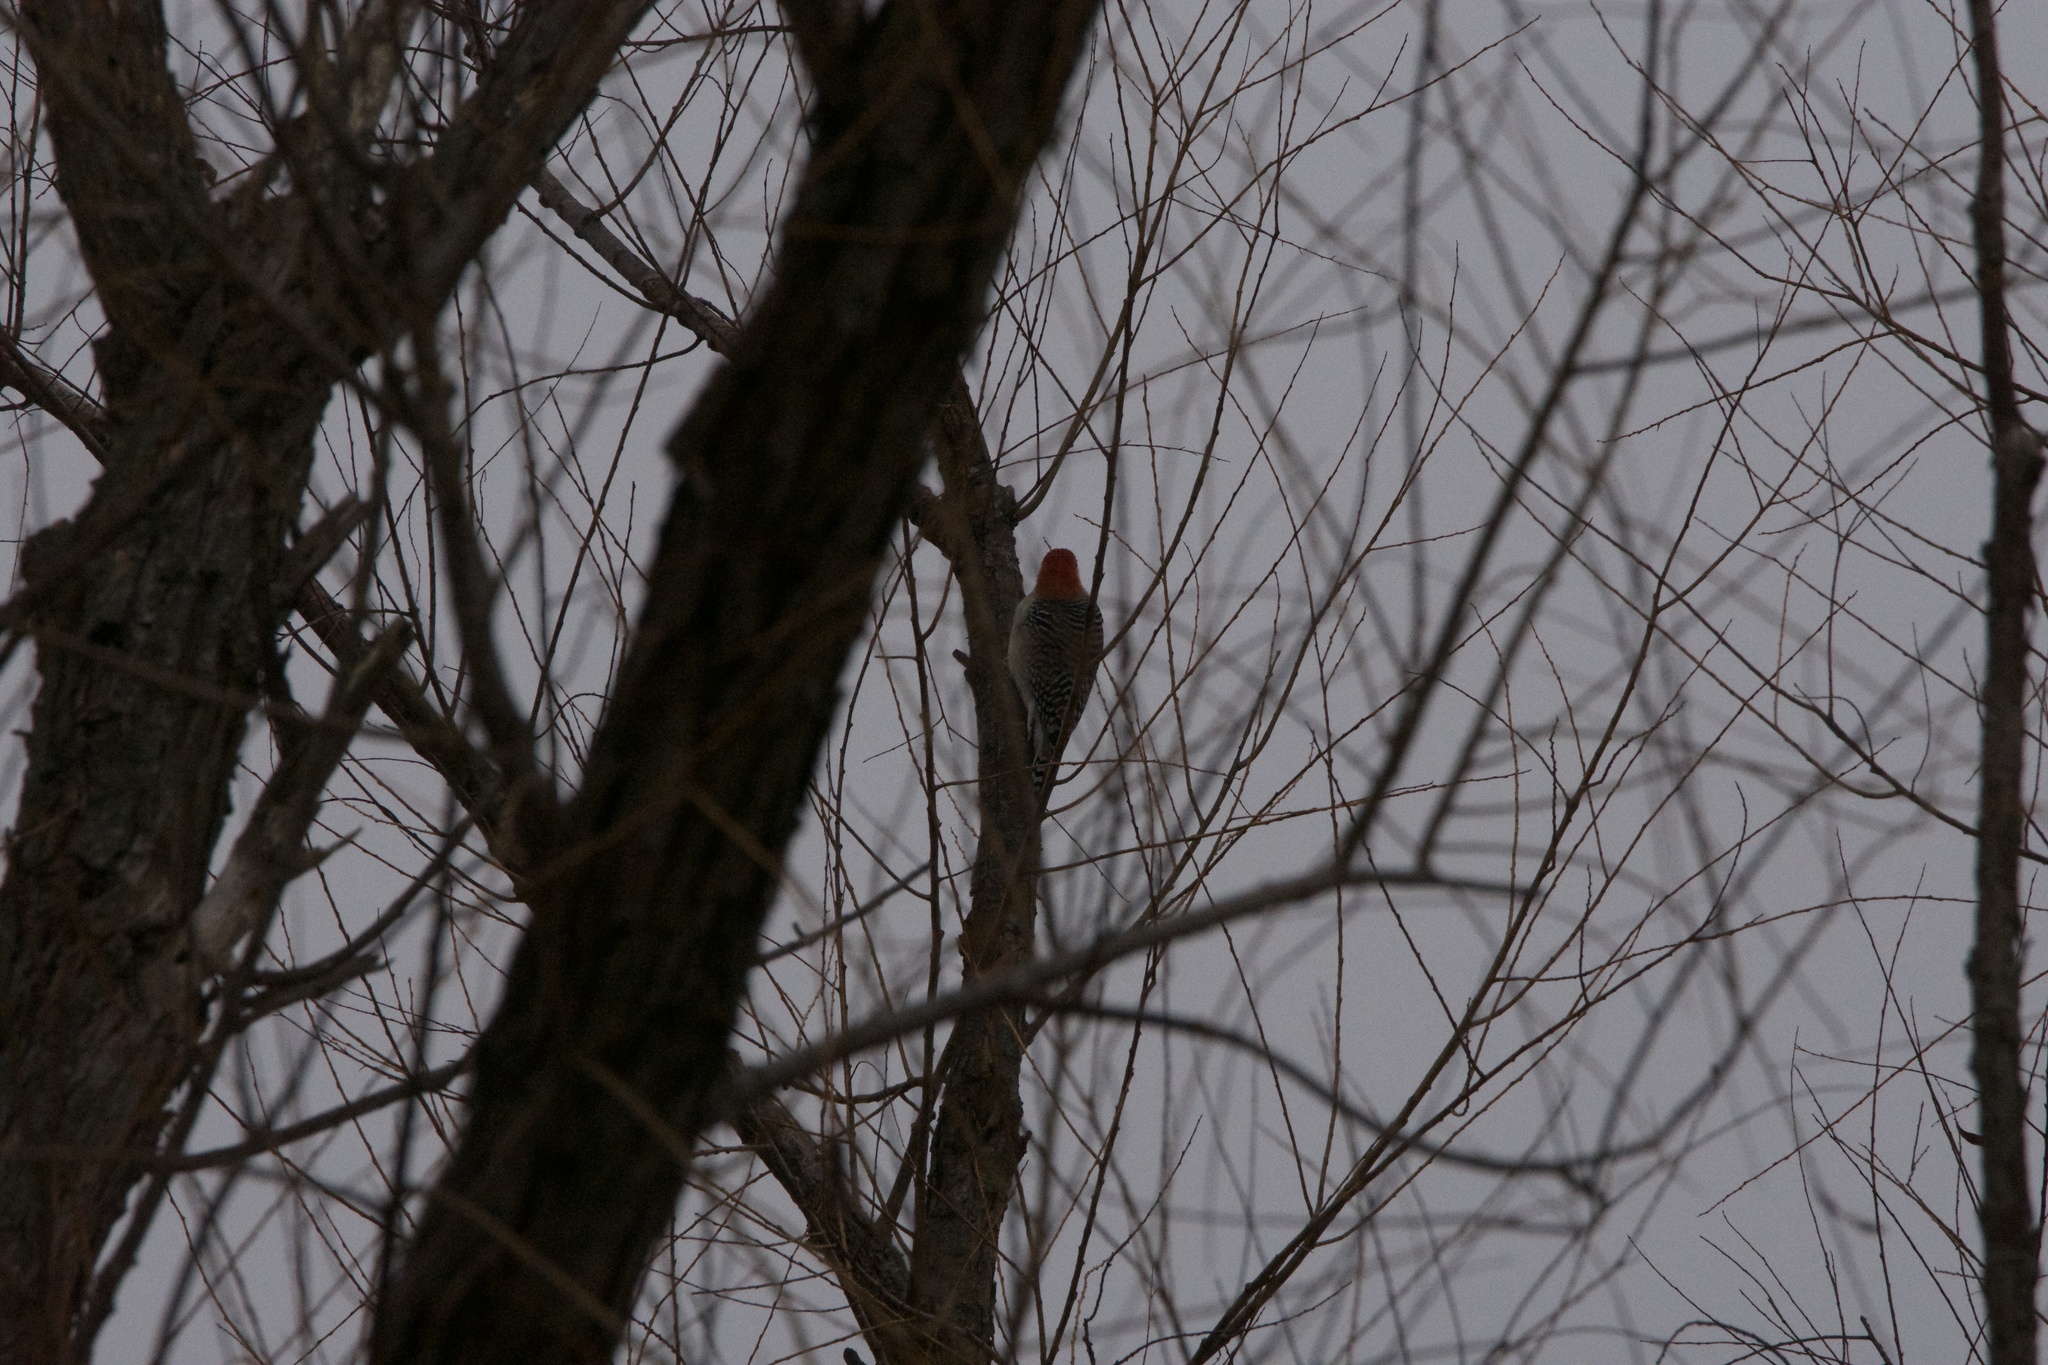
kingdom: Animalia
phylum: Chordata
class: Aves
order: Piciformes
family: Picidae
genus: Melanerpes
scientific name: Melanerpes carolinus
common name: Red-bellied woodpecker
